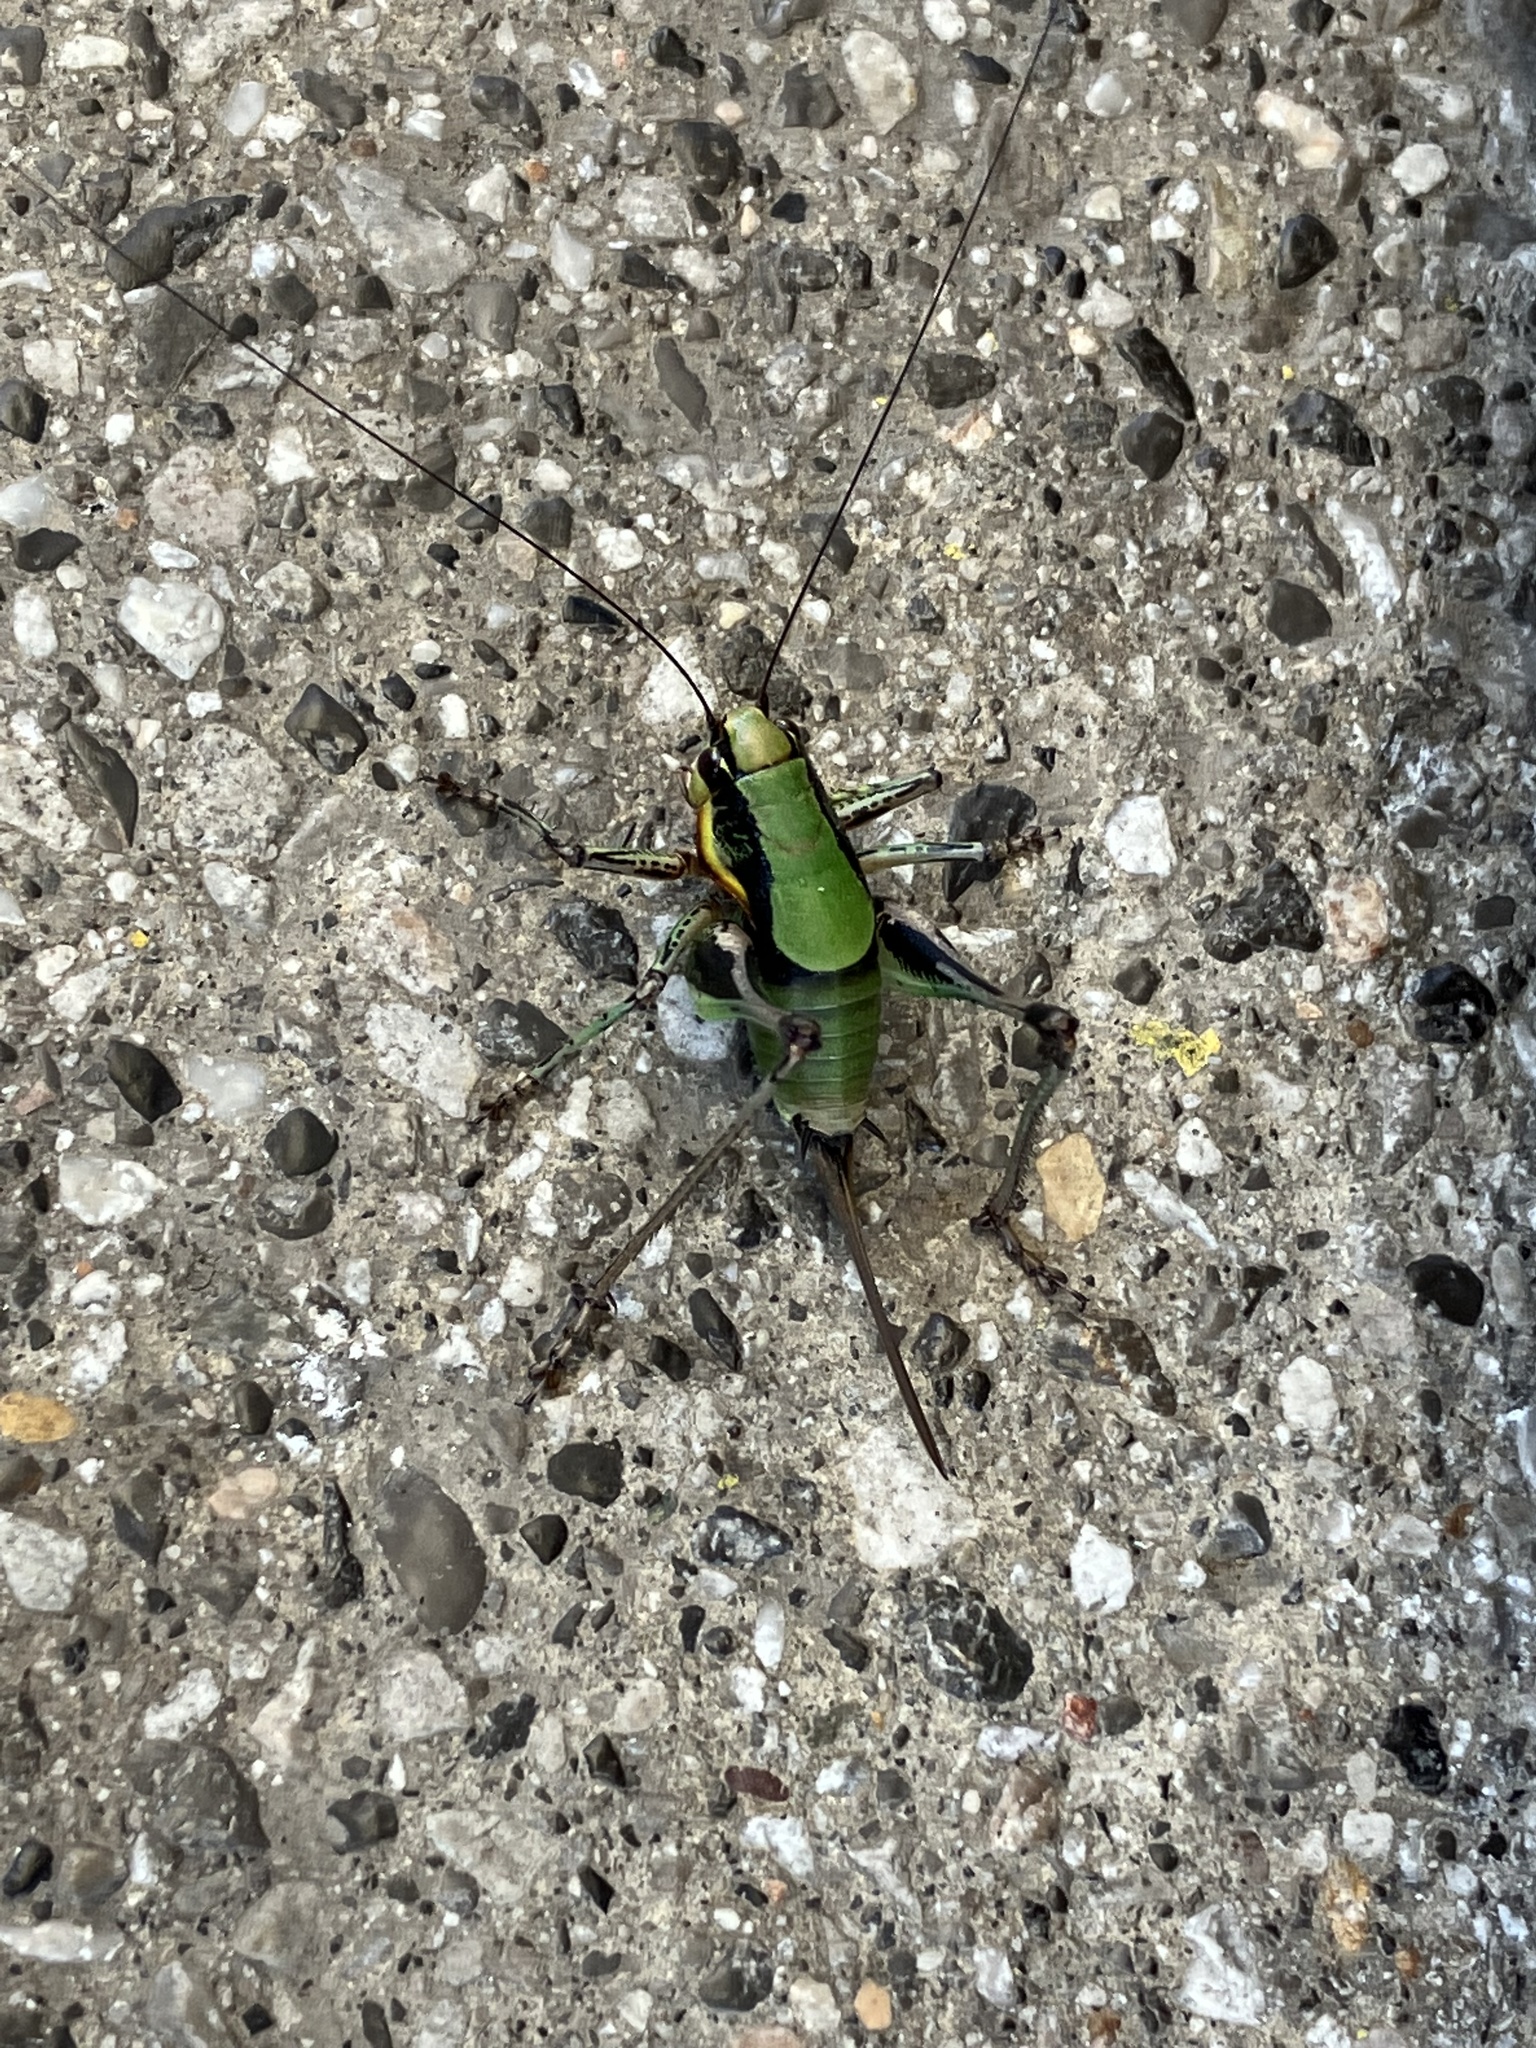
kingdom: Animalia
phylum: Arthropoda
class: Insecta
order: Orthoptera
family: Tettigoniidae
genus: Eupholidoptera
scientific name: Eupholidoptera schmidti
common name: Schmidt's marbled bush-cricket
